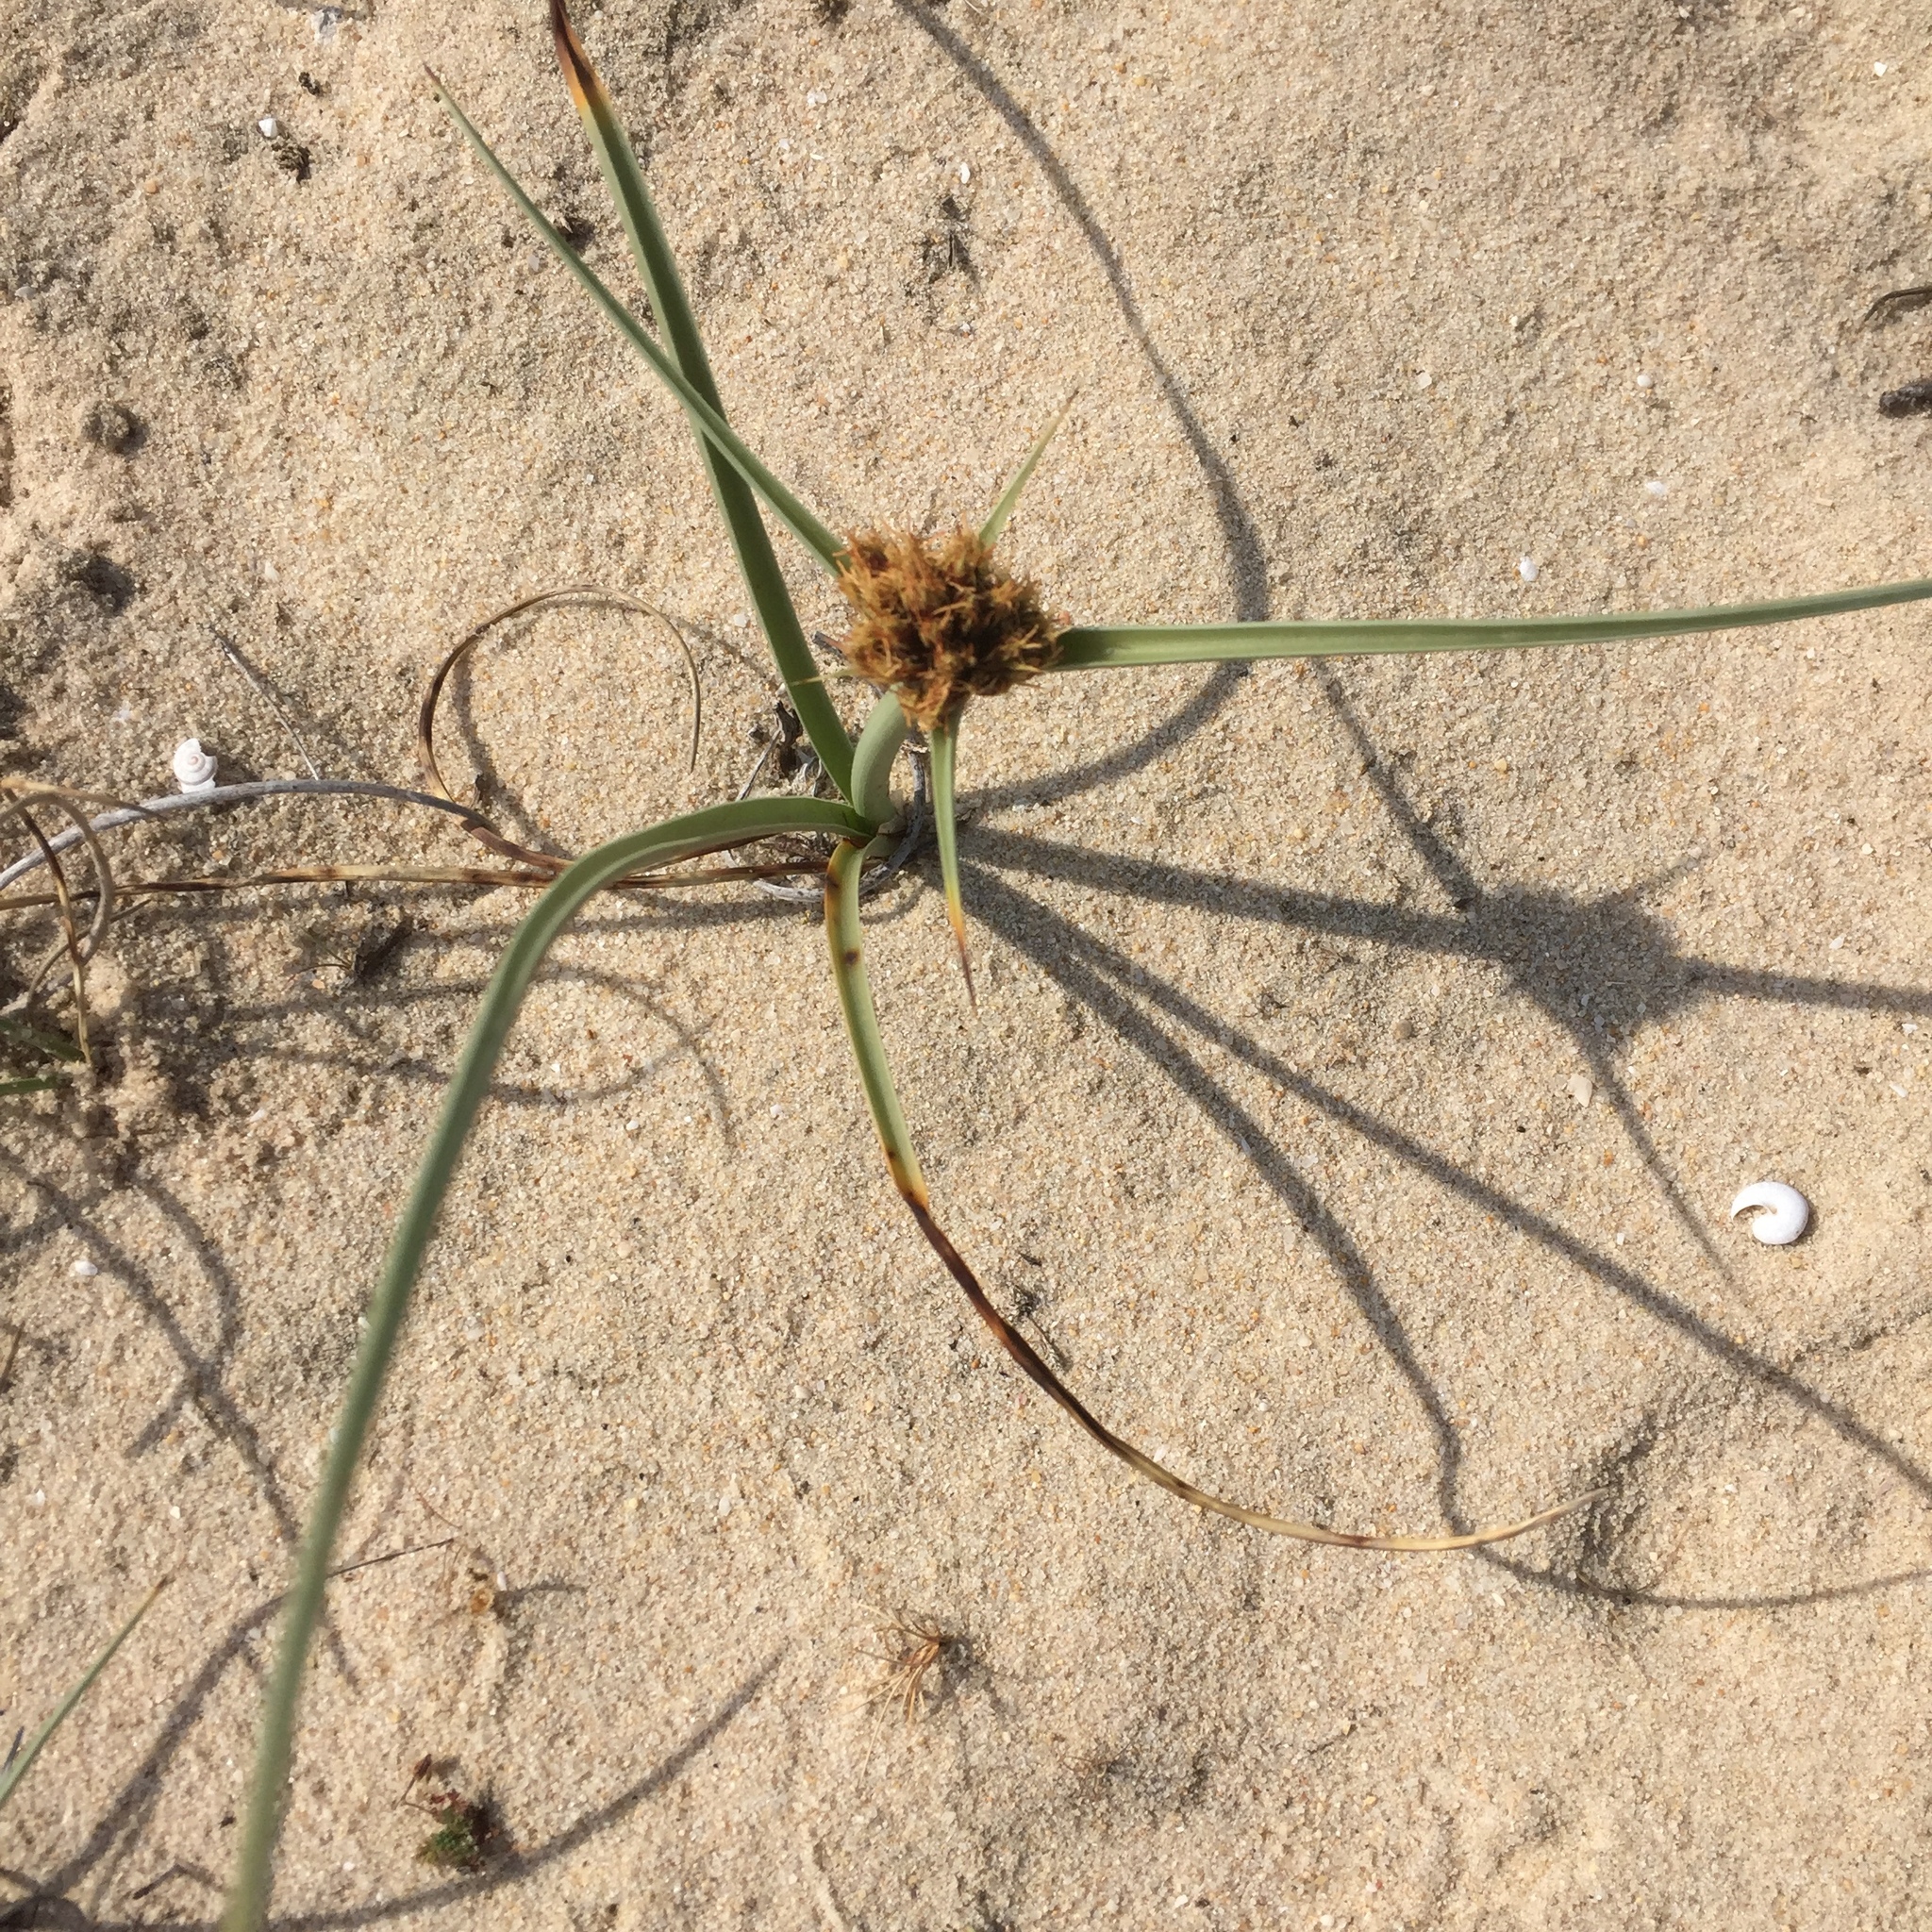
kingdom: Plantae
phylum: Tracheophyta
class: Liliopsida
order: Poales
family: Cyperaceae
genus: Cyperus
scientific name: Cyperus capitatus
